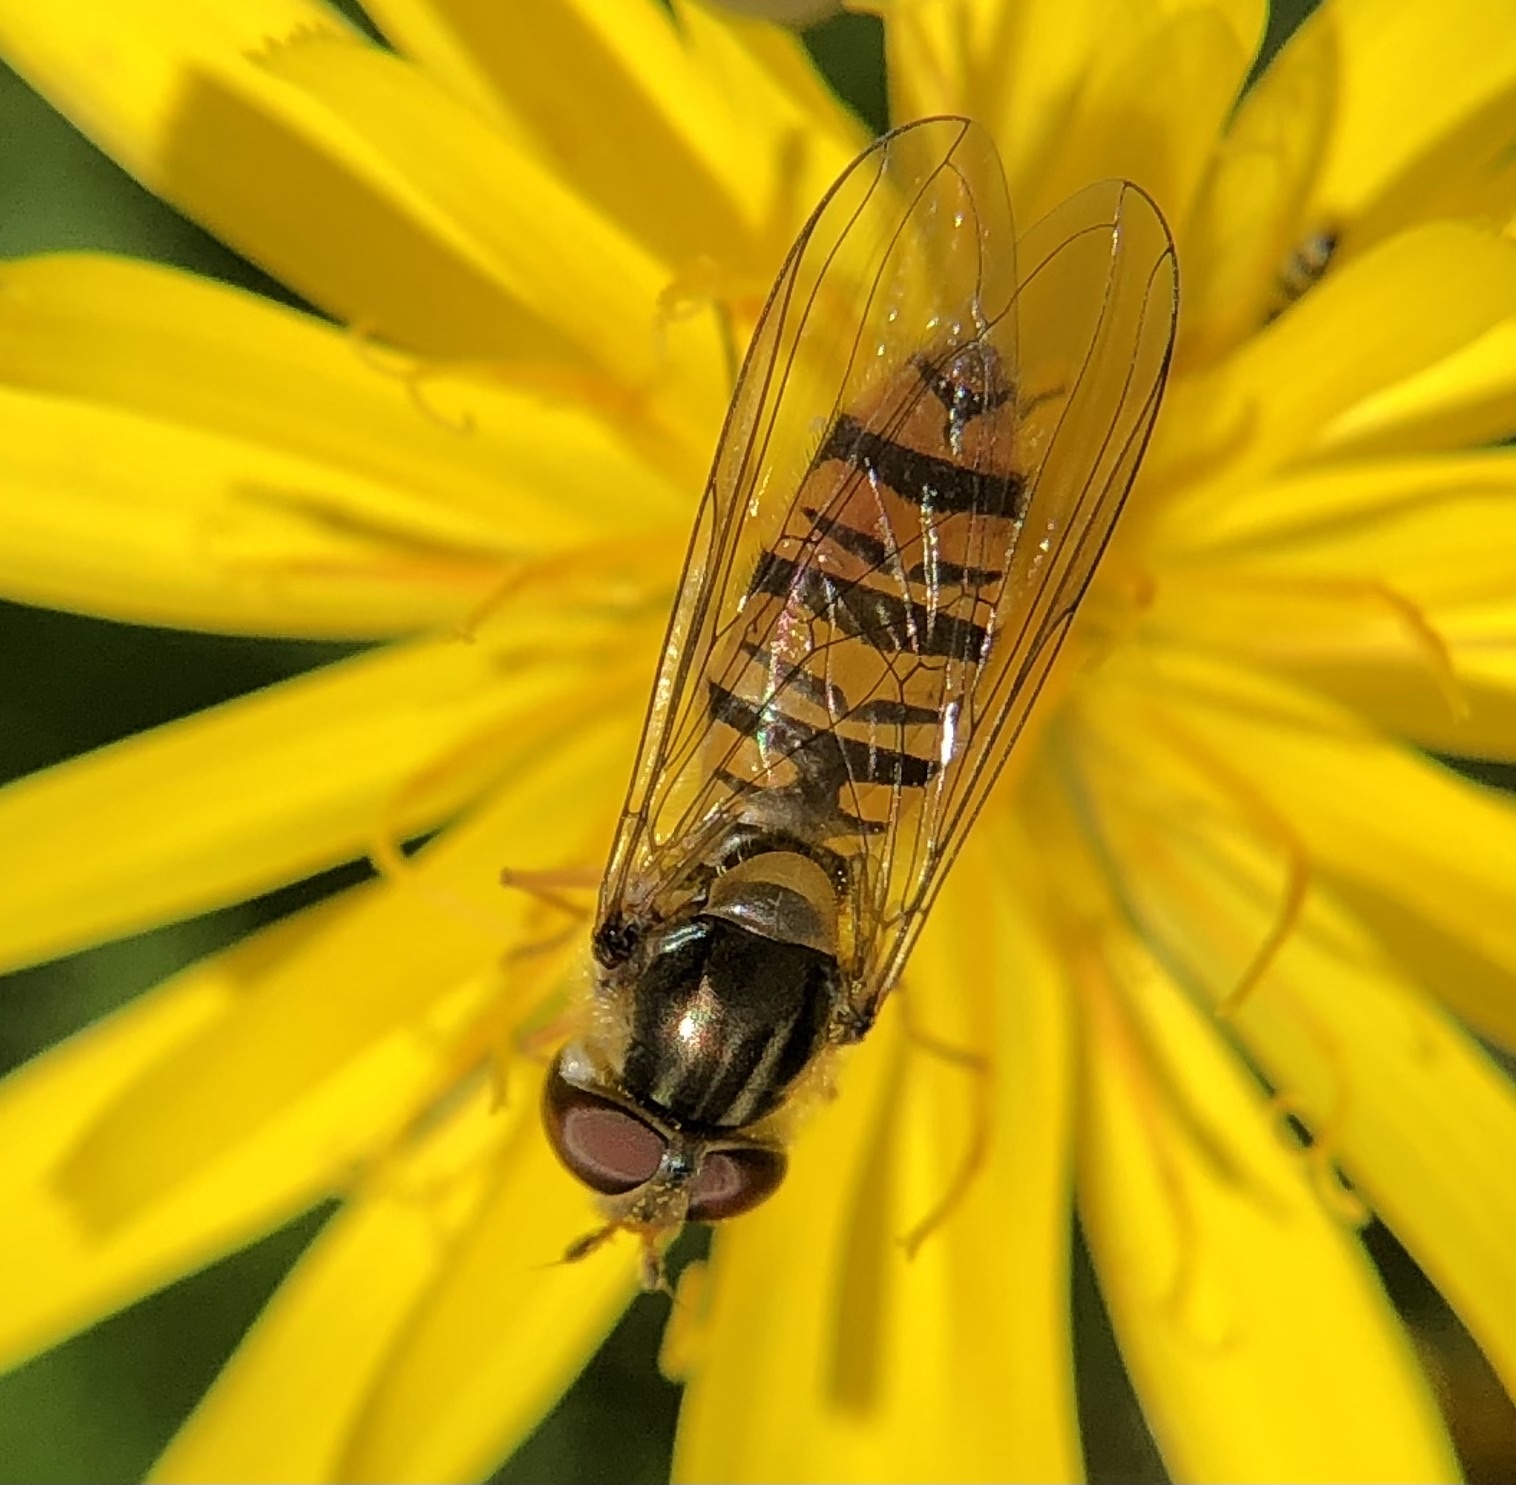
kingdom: Animalia
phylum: Arthropoda
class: Insecta
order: Diptera
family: Syrphidae
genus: Episyrphus
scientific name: Episyrphus balteatus
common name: Marmalade hoverfly
